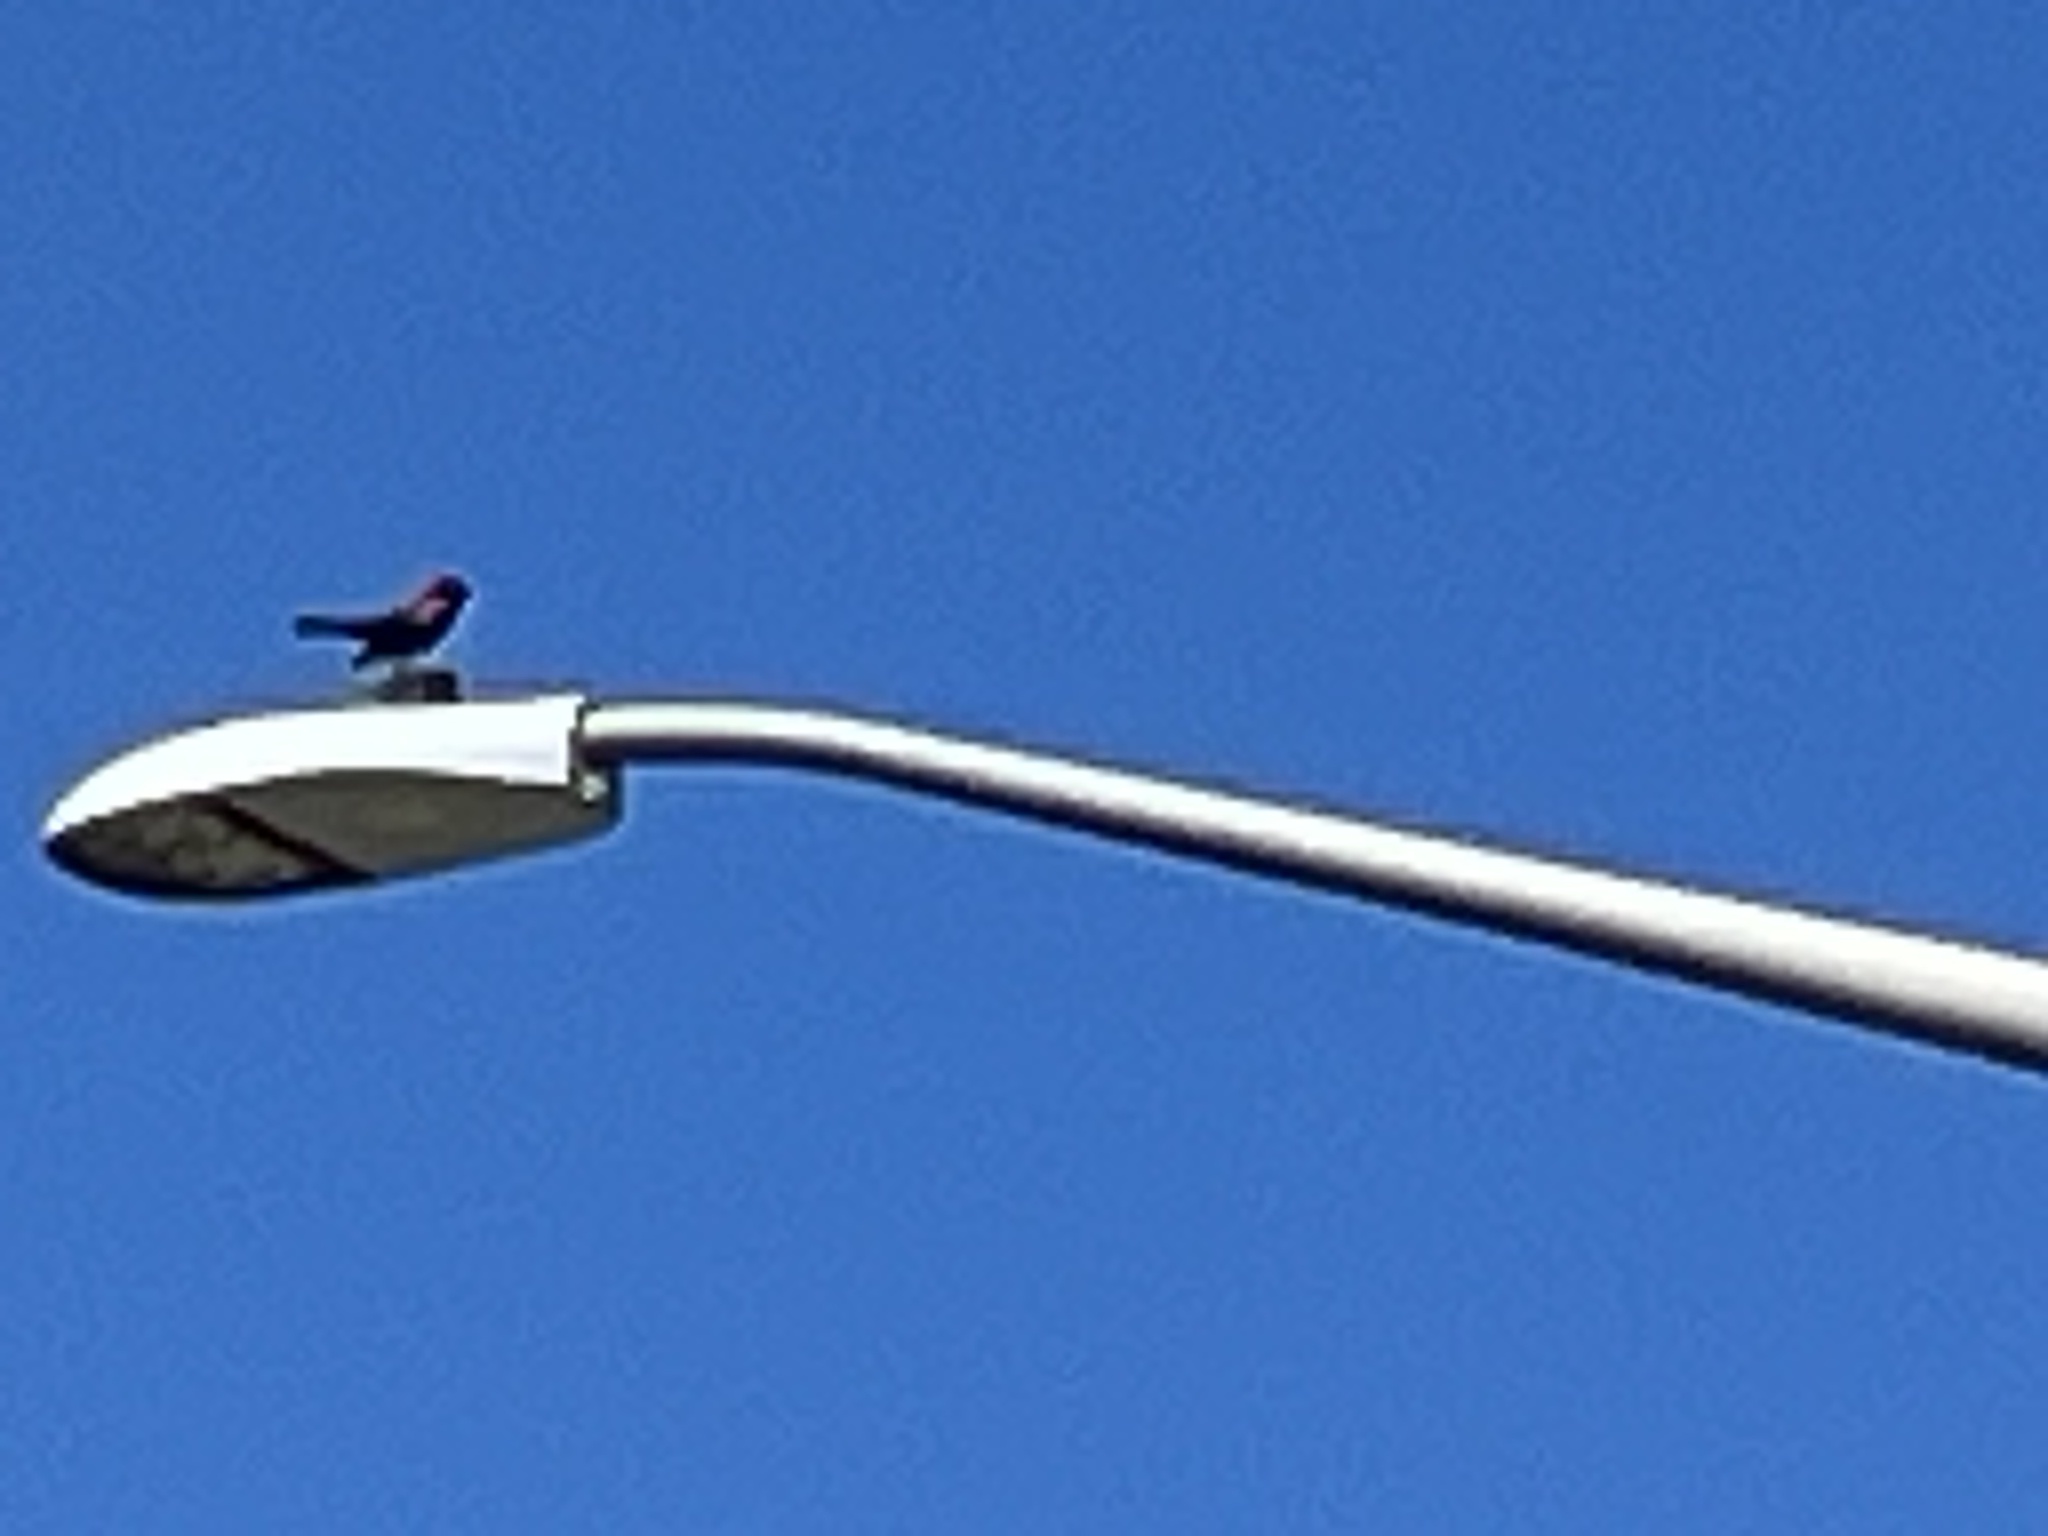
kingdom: Animalia
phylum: Chordata
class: Aves
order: Passeriformes
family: Icteridae
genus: Agelaius
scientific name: Agelaius phoeniceus
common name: Red-winged blackbird
